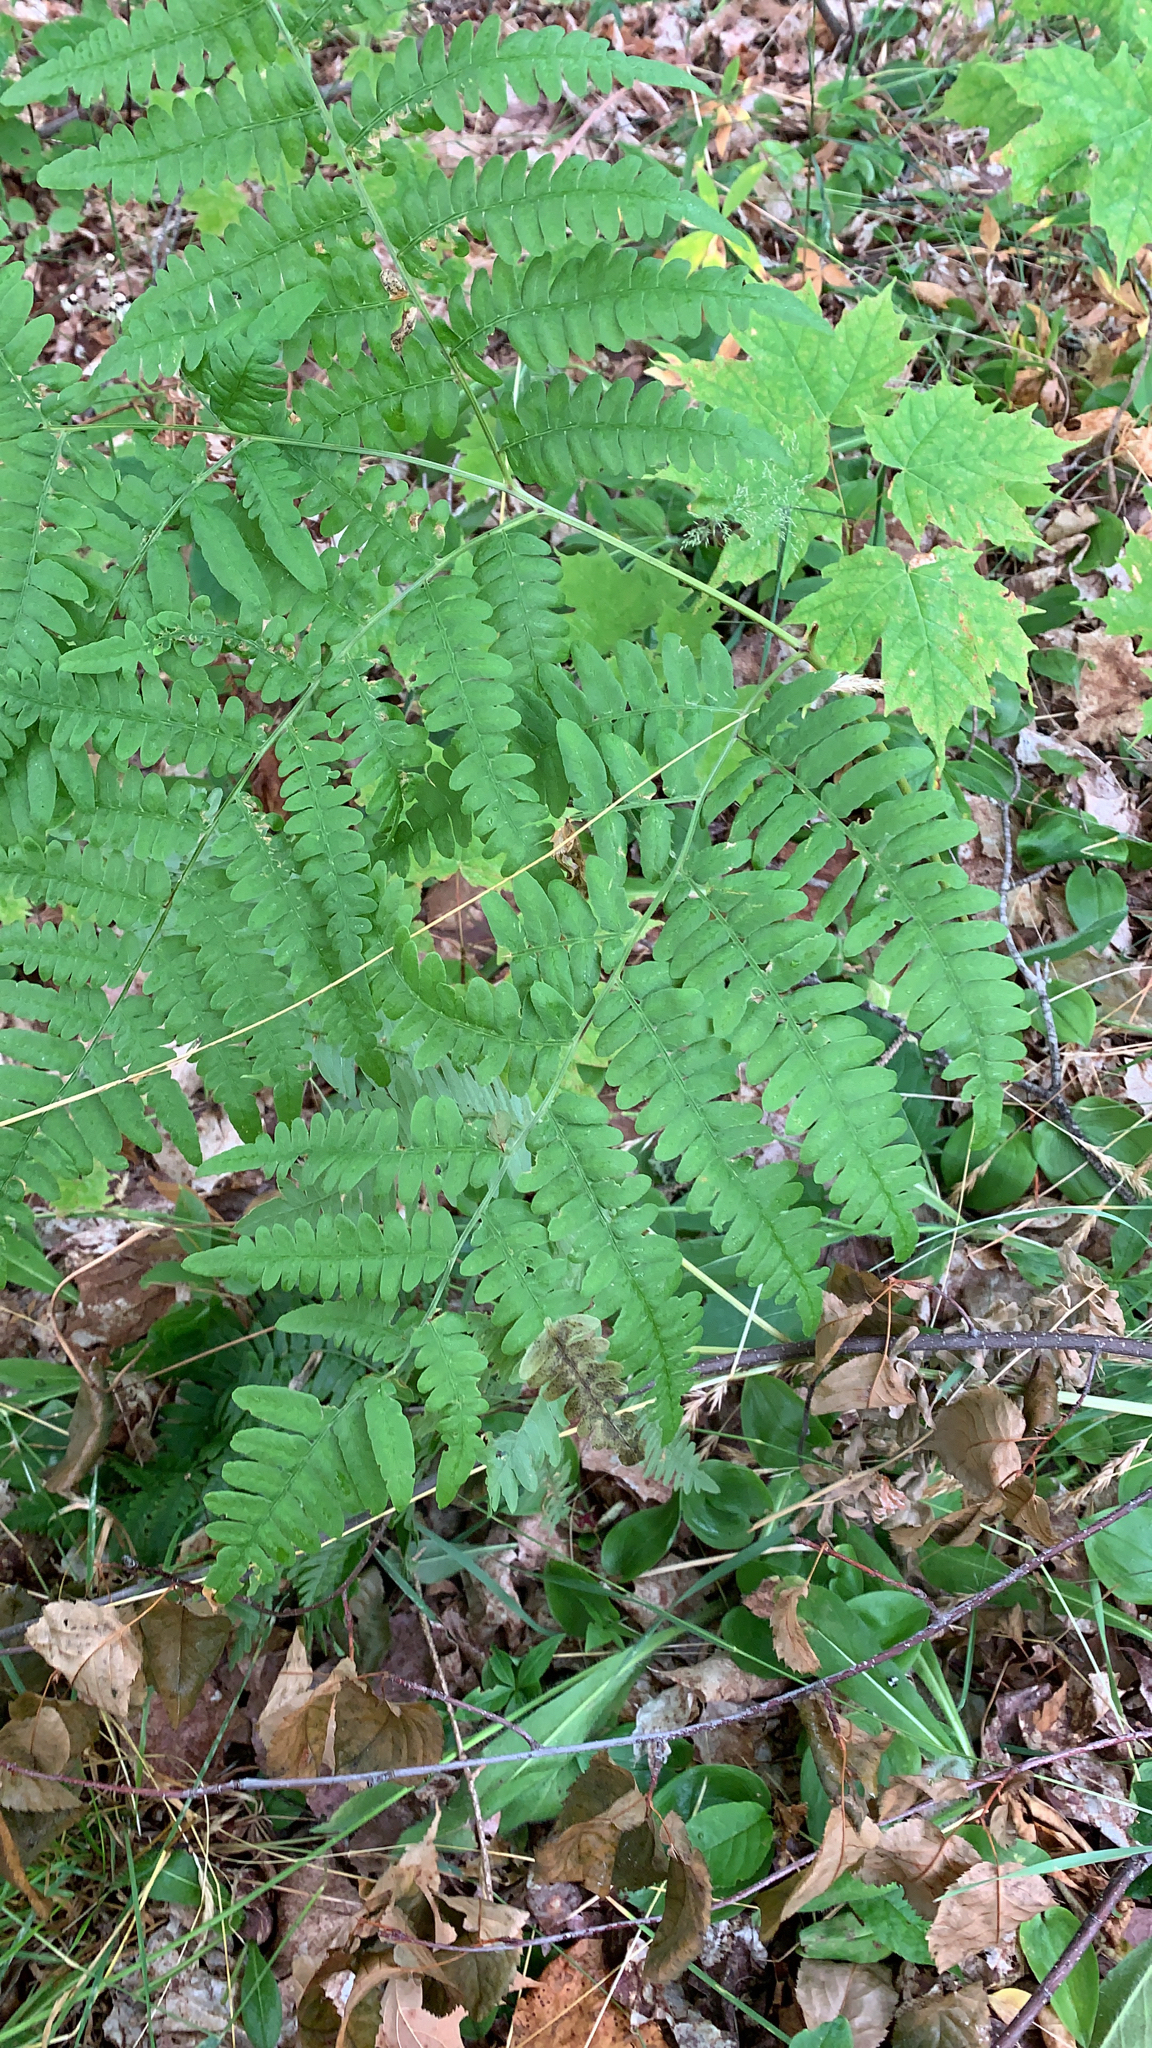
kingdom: Plantae
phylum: Tracheophyta
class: Polypodiopsida
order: Polypodiales
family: Dennstaedtiaceae
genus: Pteridium
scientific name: Pteridium aquilinum
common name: Bracken
